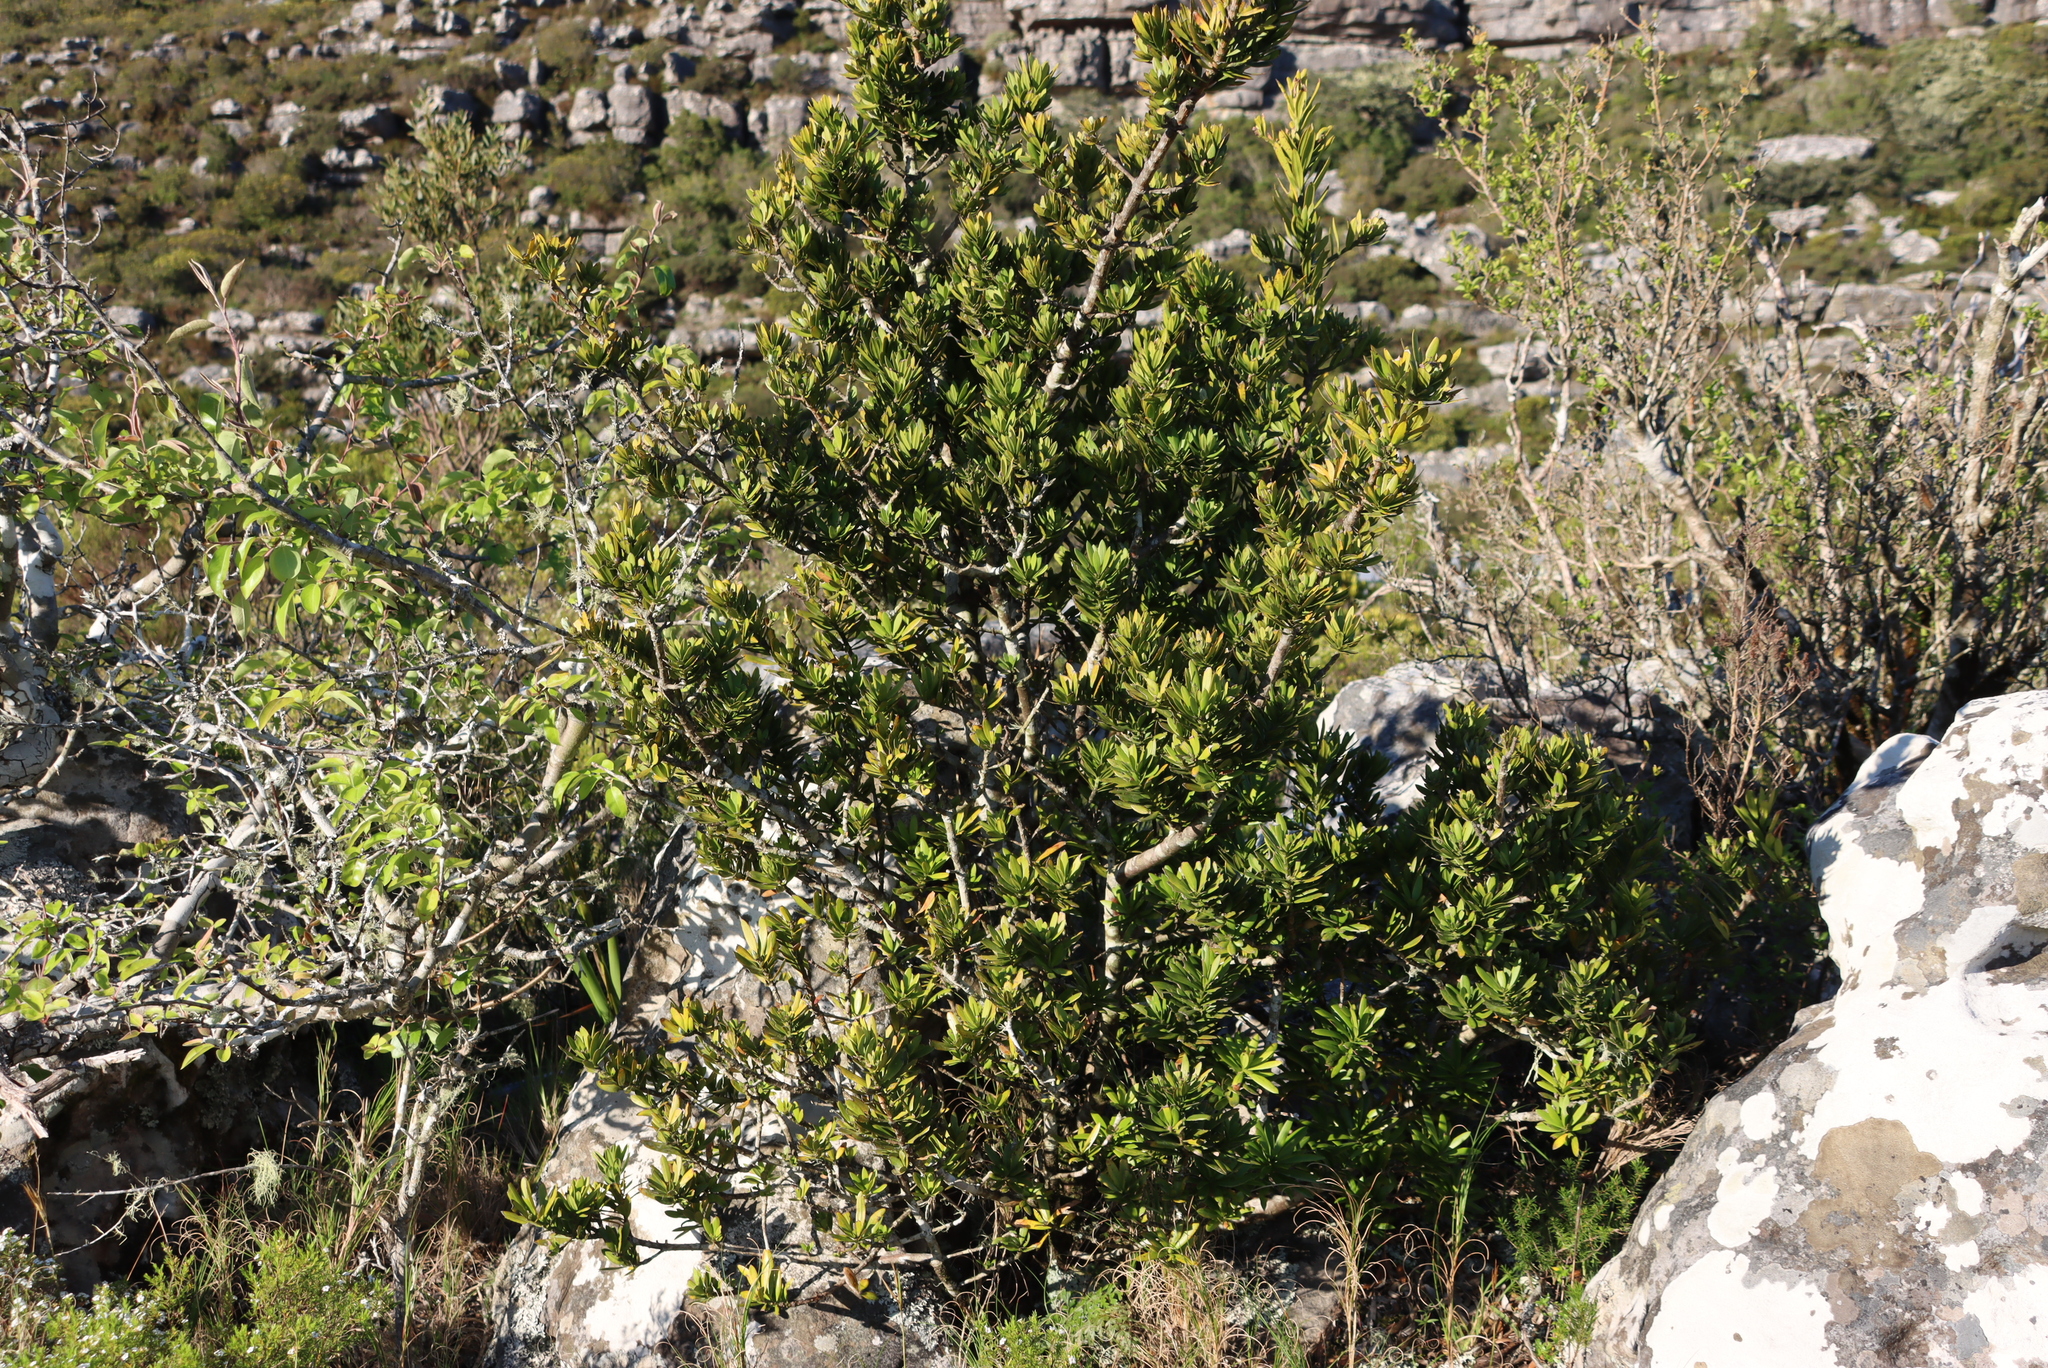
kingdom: Plantae
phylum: Tracheophyta
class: Pinopsida
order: Pinales
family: Podocarpaceae
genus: Podocarpus
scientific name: Podocarpus latifolius
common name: True yellowwood
